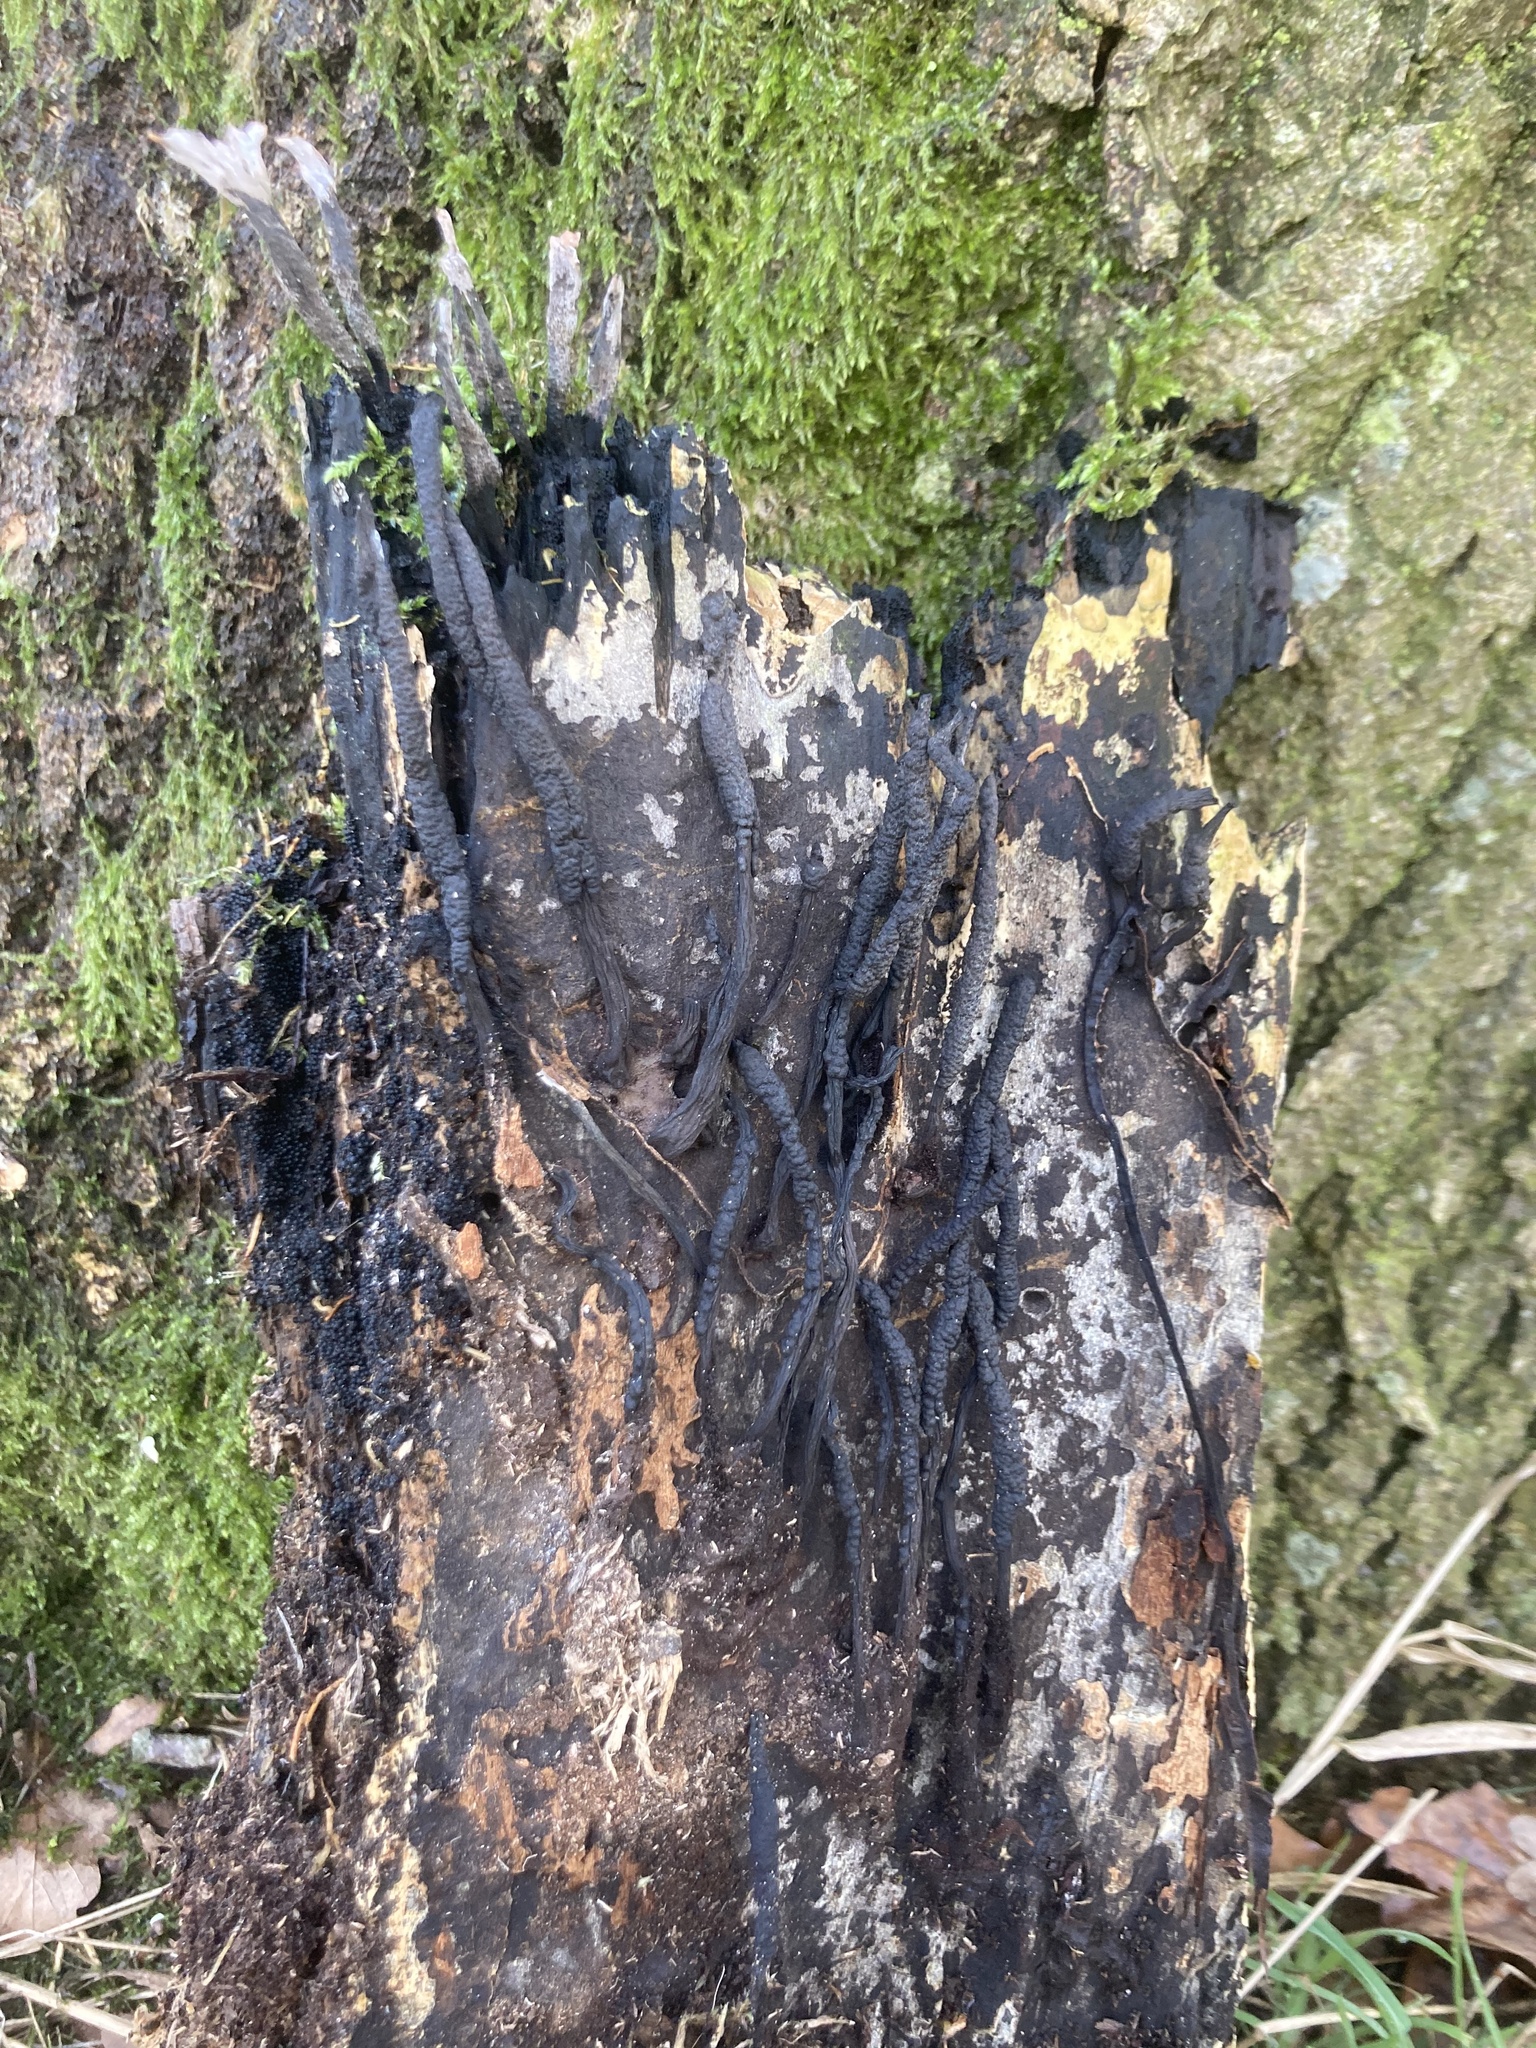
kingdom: Fungi
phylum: Ascomycota
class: Sordariomycetes
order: Xylariales
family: Xylariaceae
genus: Xylaria
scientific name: Xylaria hypoxylon
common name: Candle-snuff fungus
